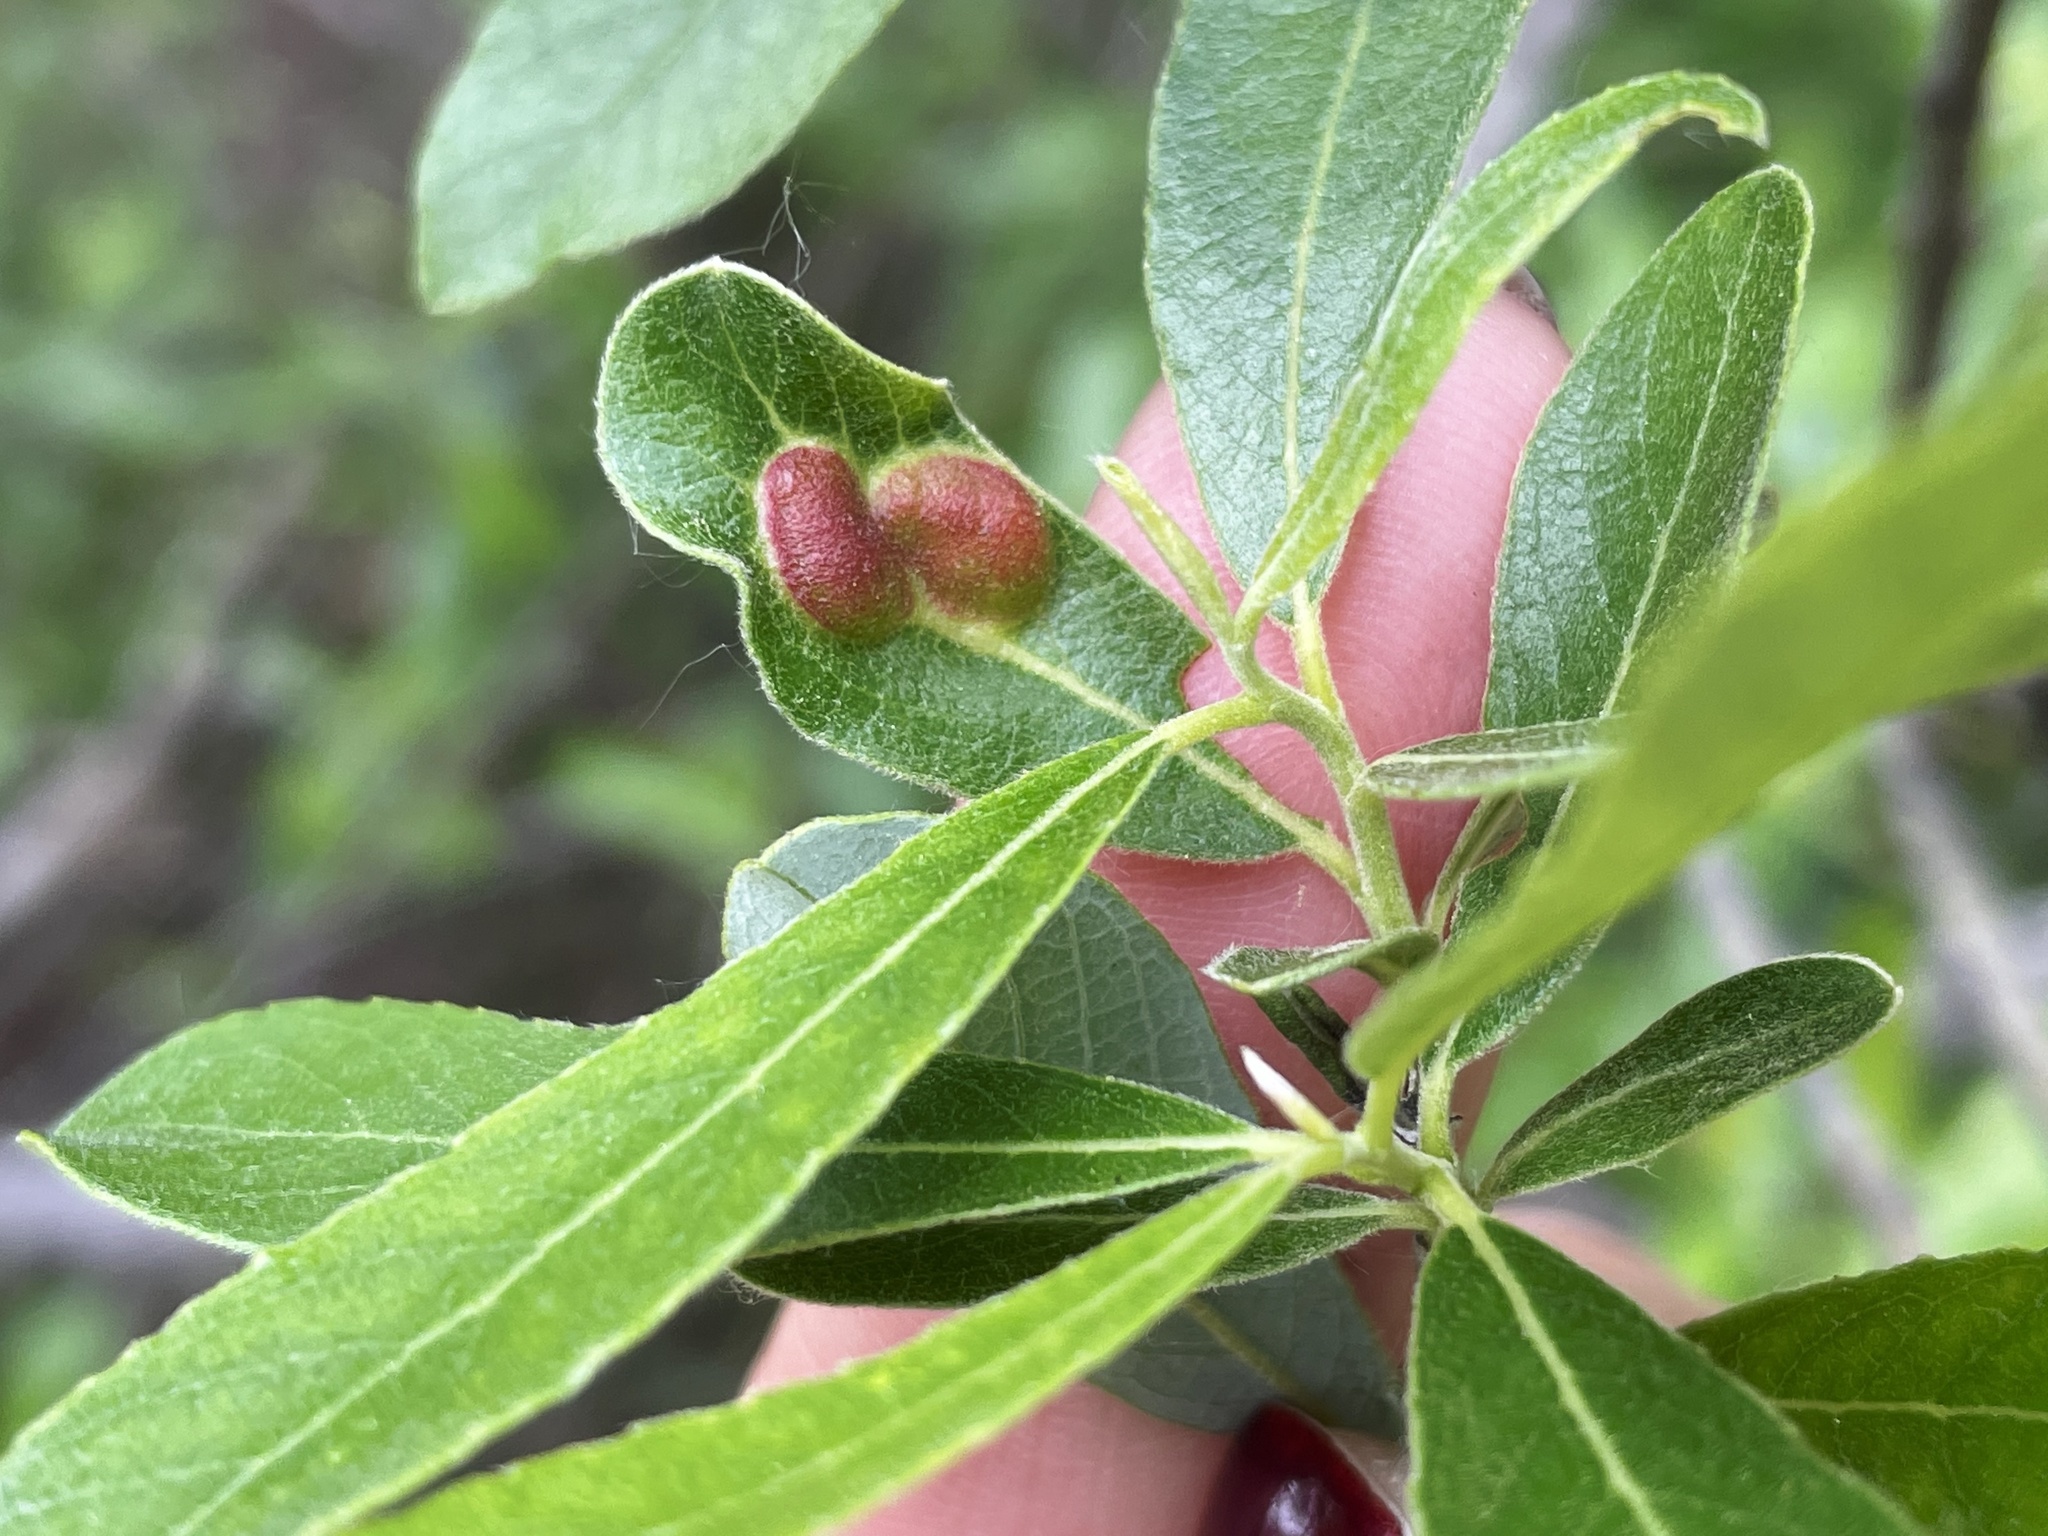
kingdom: Animalia
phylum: Arthropoda
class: Insecta
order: Hymenoptera
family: Tenthredinidae
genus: Euura
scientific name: Euura
